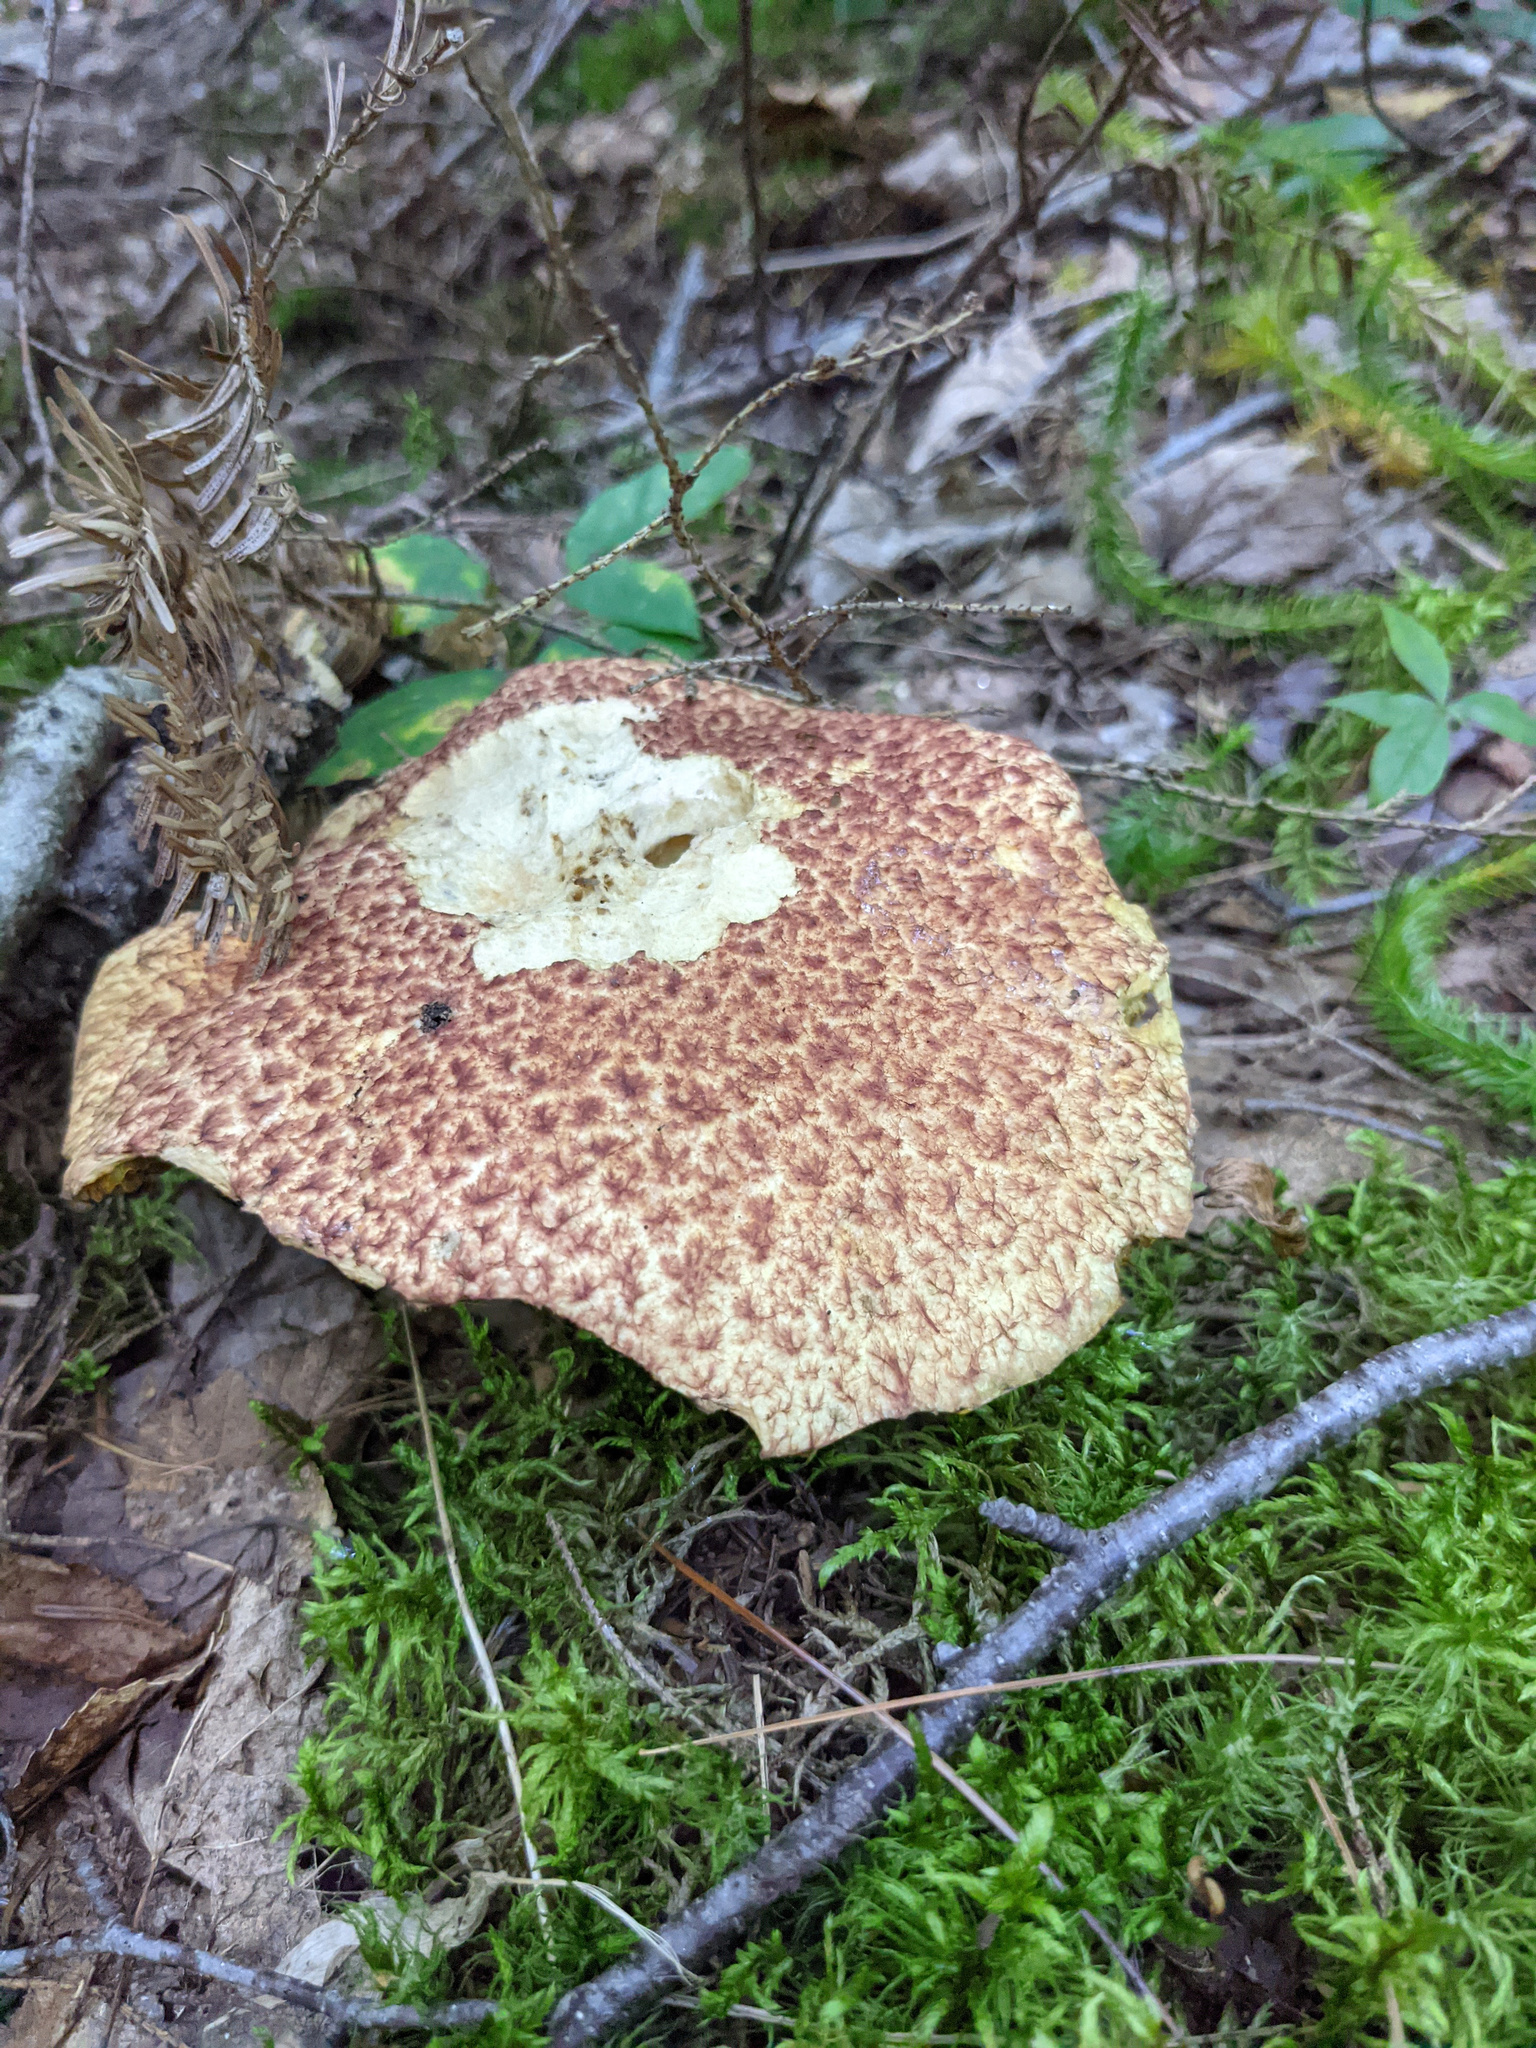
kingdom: Fungi
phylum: Basidiomycota
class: Agaricomycetes
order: Boletales
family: Suillaceae
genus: Suillus
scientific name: Suillus spraguei
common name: Painted suillus
